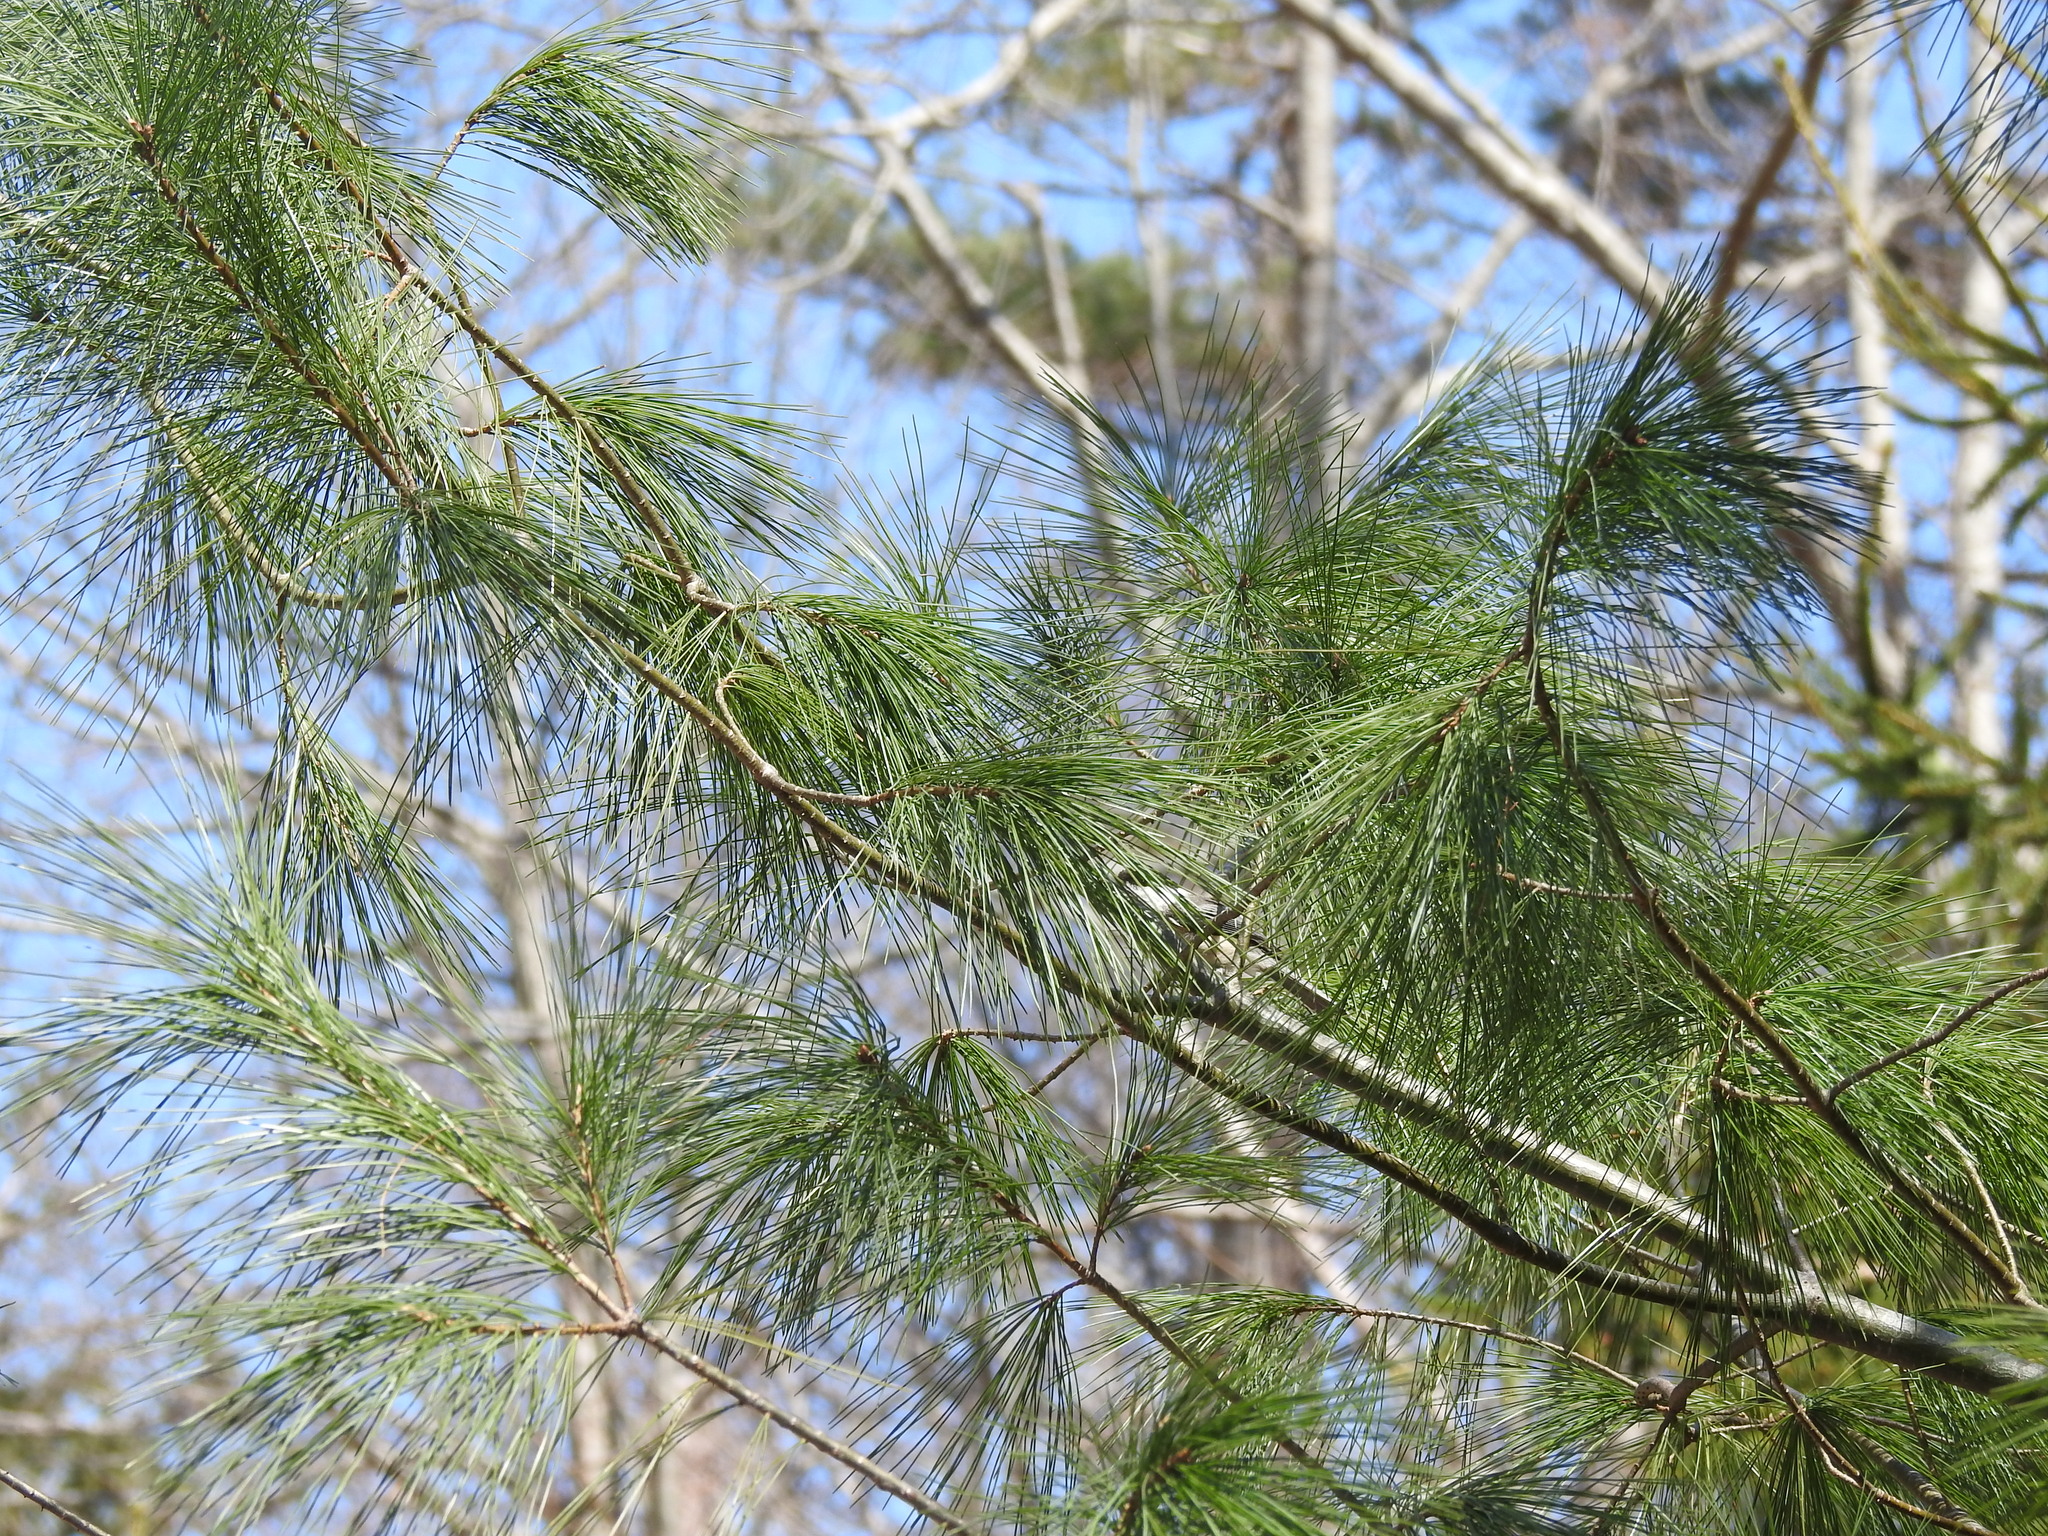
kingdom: Plantae
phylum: Tracheophyta
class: Pinopsida
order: Pinales
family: Pinaceae
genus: Pinus
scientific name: Pinus strobus
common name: Weymouth pine
